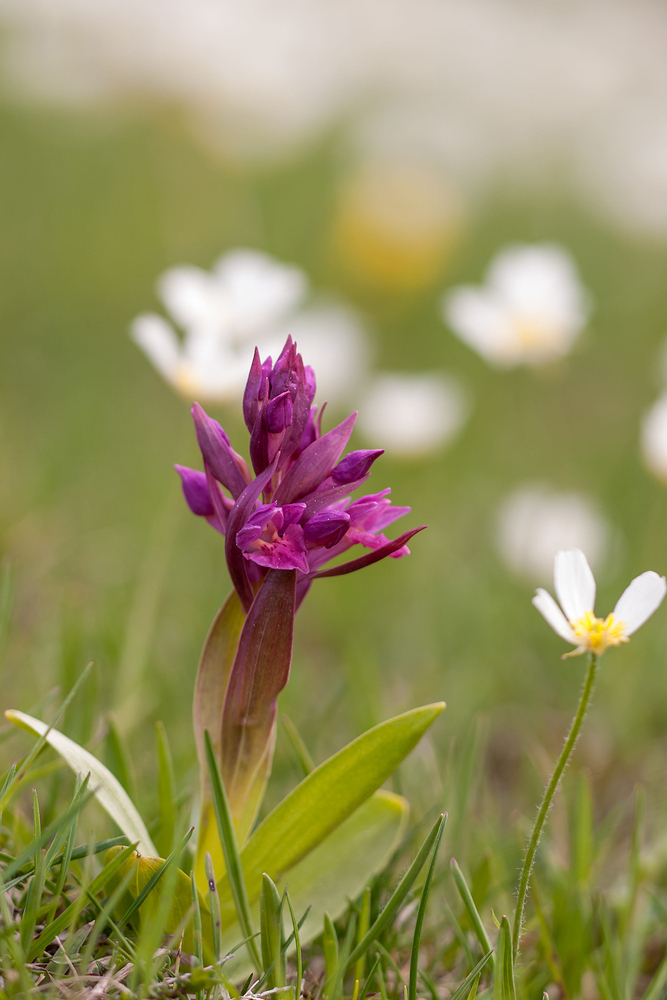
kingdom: Plantae
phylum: Tracheophyta
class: Liliopsida
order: Asparagales
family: Orchidaceae
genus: Dactylorhiza
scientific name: Dactylorhiza sambucina
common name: Elder-flowered orchid
